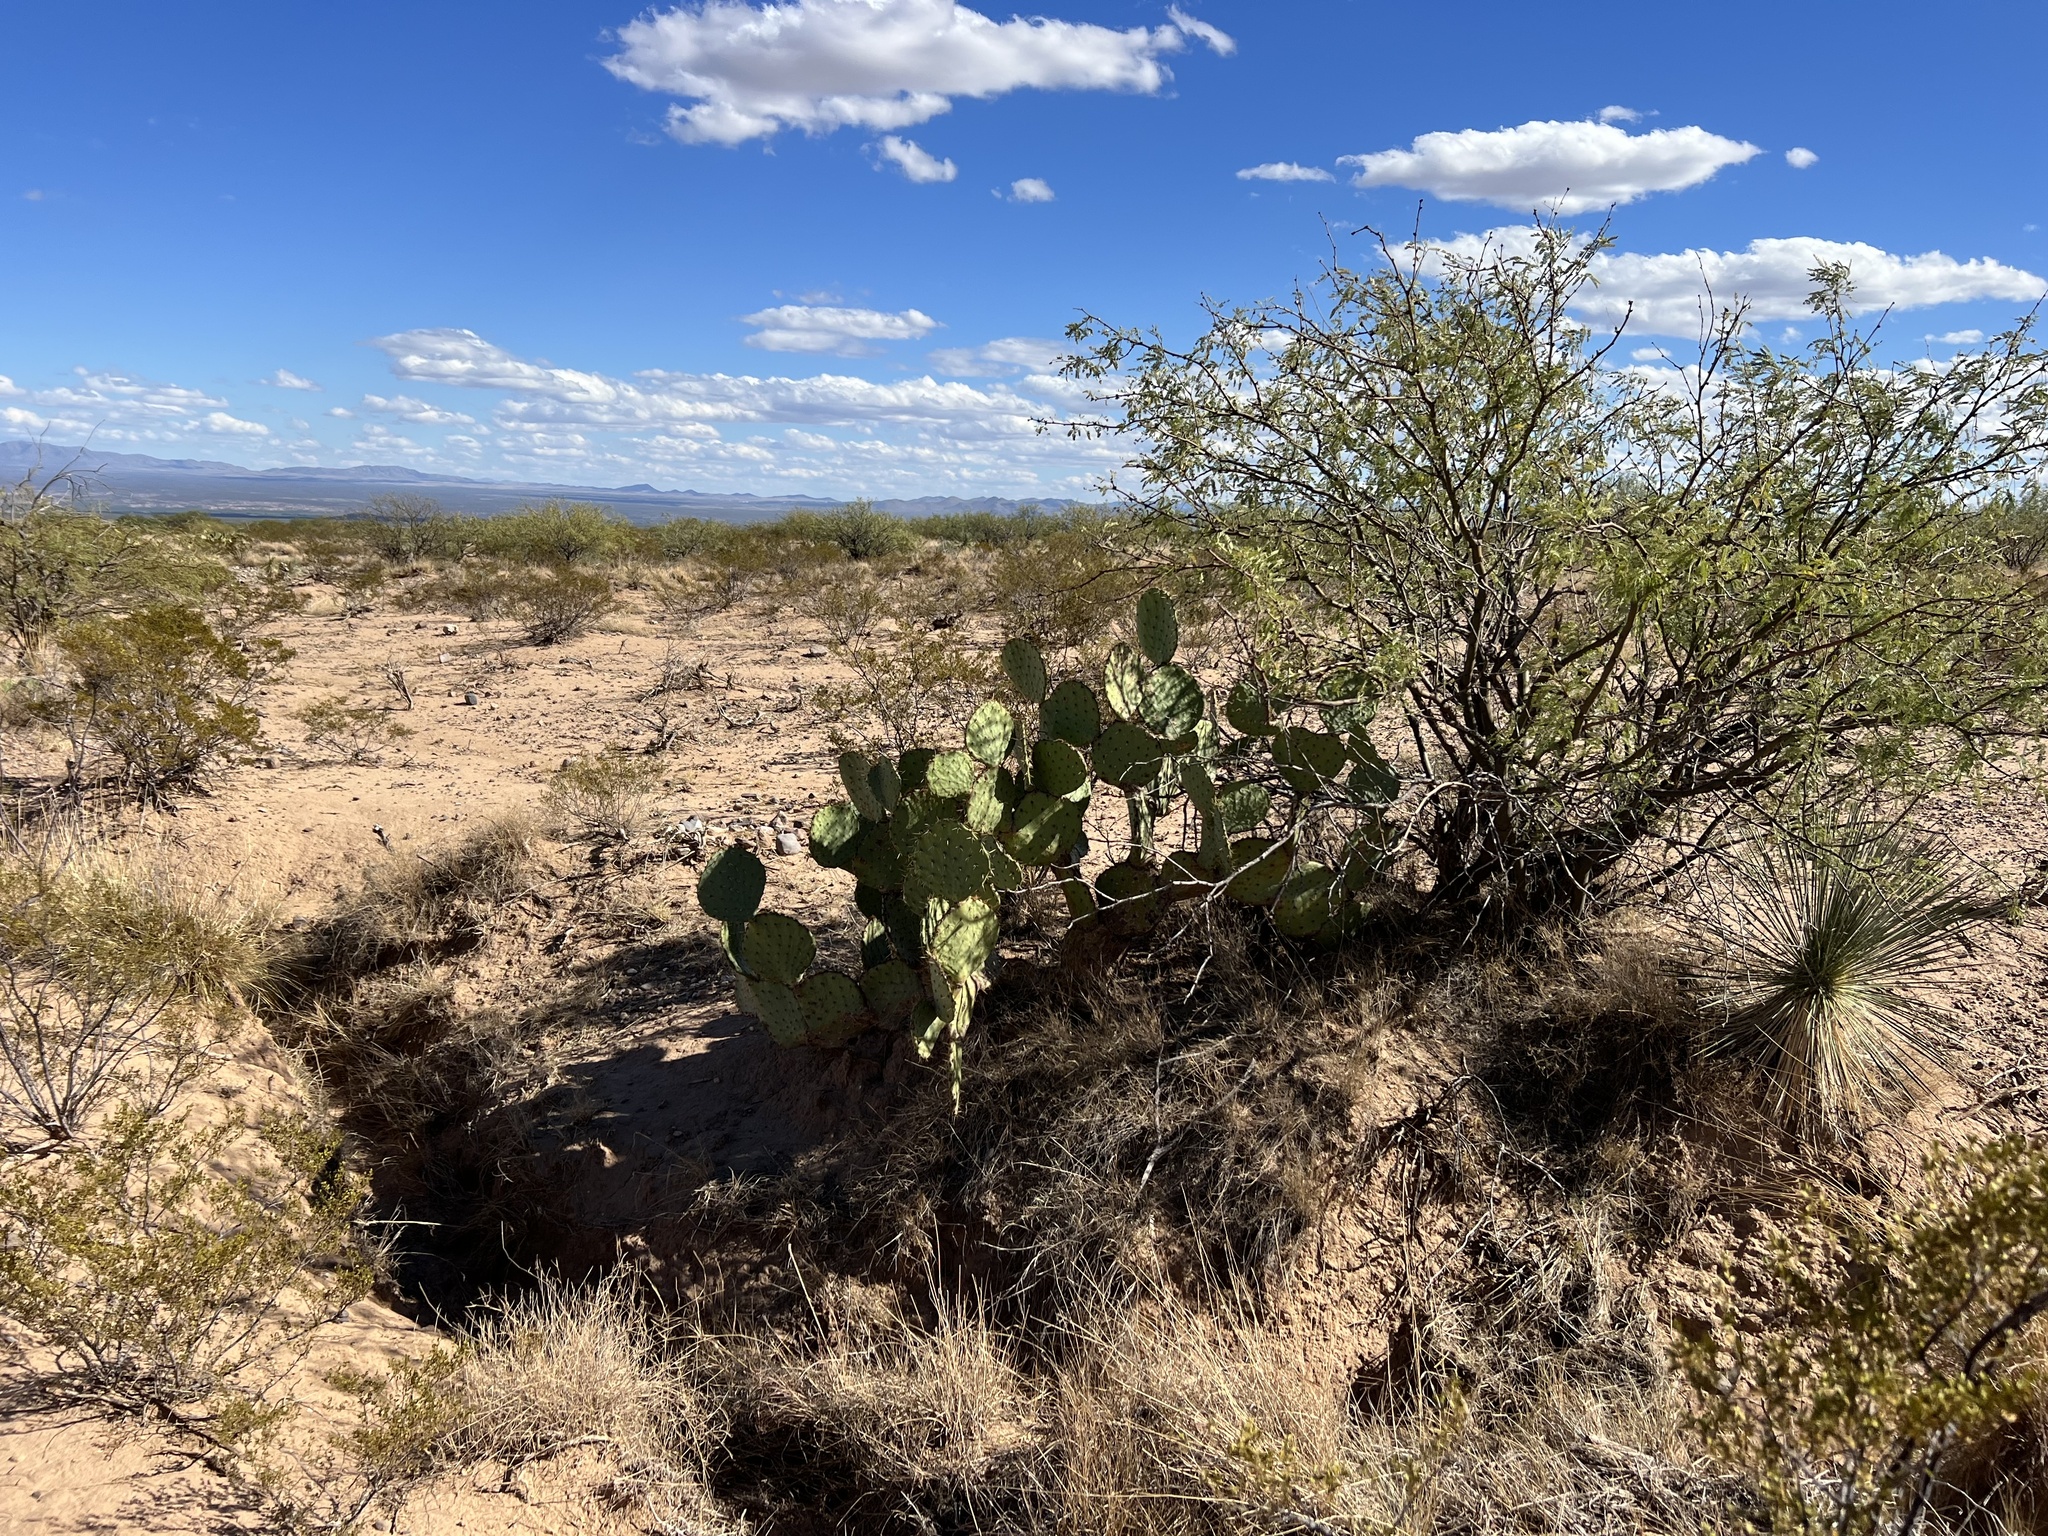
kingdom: Plantae
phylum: Tracheophyta
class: Magnoliopsida
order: Caryophyllales
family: Cactaceae
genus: Opuntia
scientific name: Opuntia engelmannii
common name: Cactus-apple
